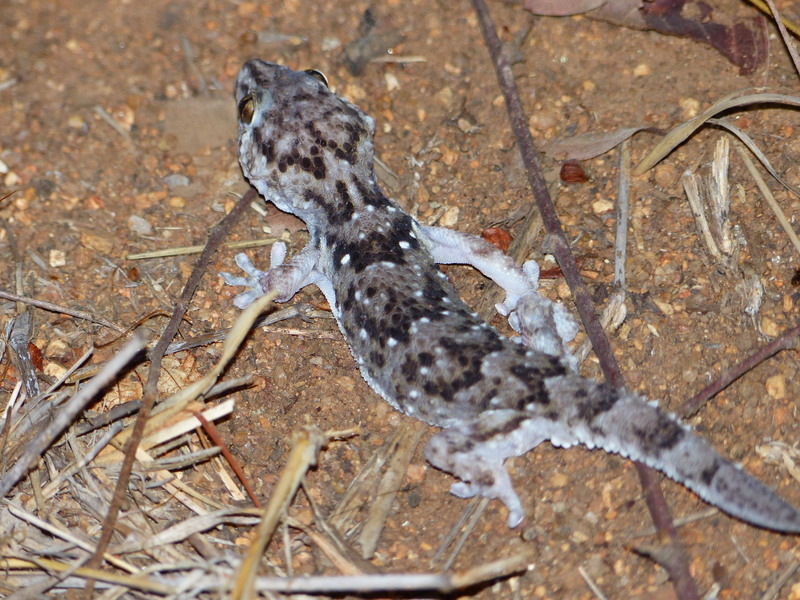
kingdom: Animalia
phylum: Chordata
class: Squamata
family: Gekkonidae
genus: Chondrodactylus
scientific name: Chondrodactylus turneri
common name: Turner’s gecko
